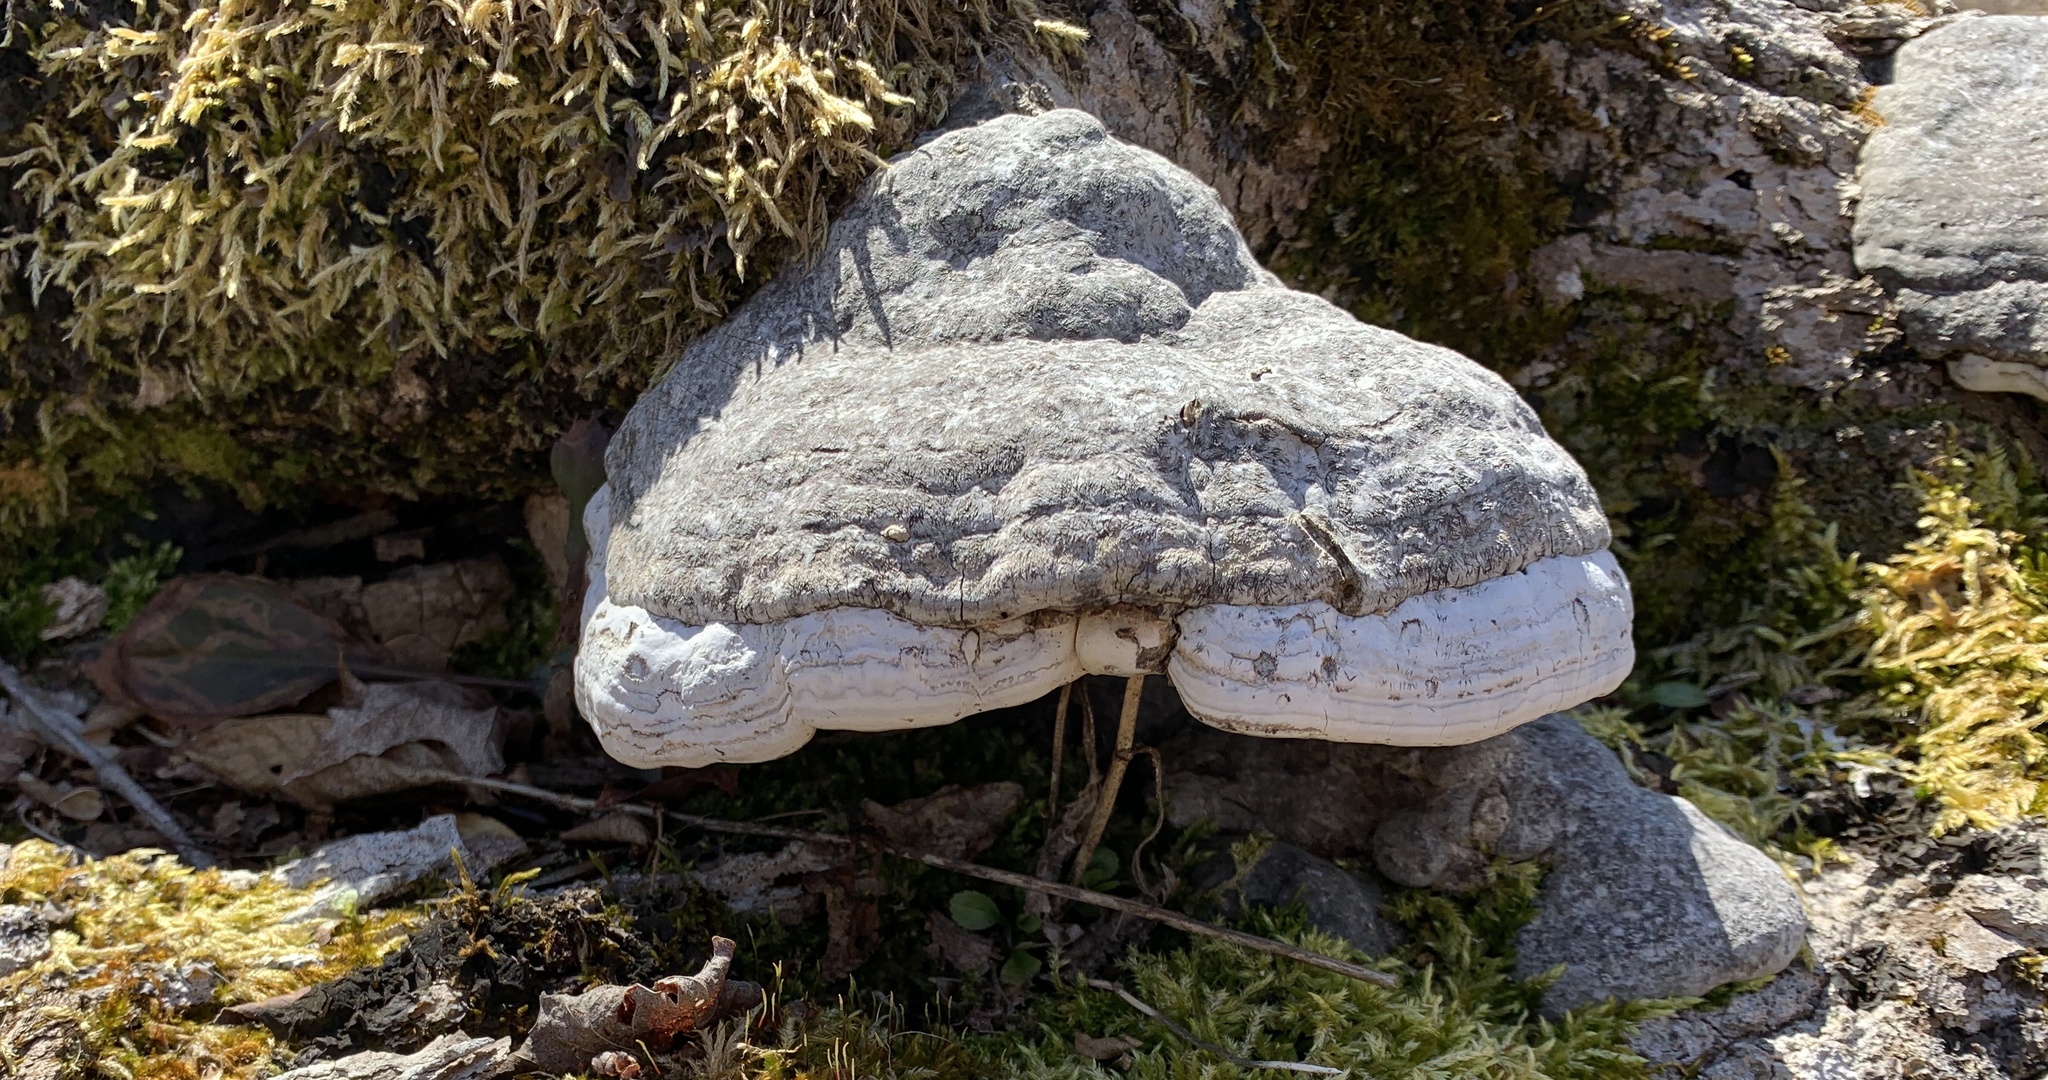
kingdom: Fungi
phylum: Basidiomycota
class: Agaricomycetes
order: Polyporales
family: Polyporaceae
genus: Fomes
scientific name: Fomes fomentarius
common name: Hoof fungus
